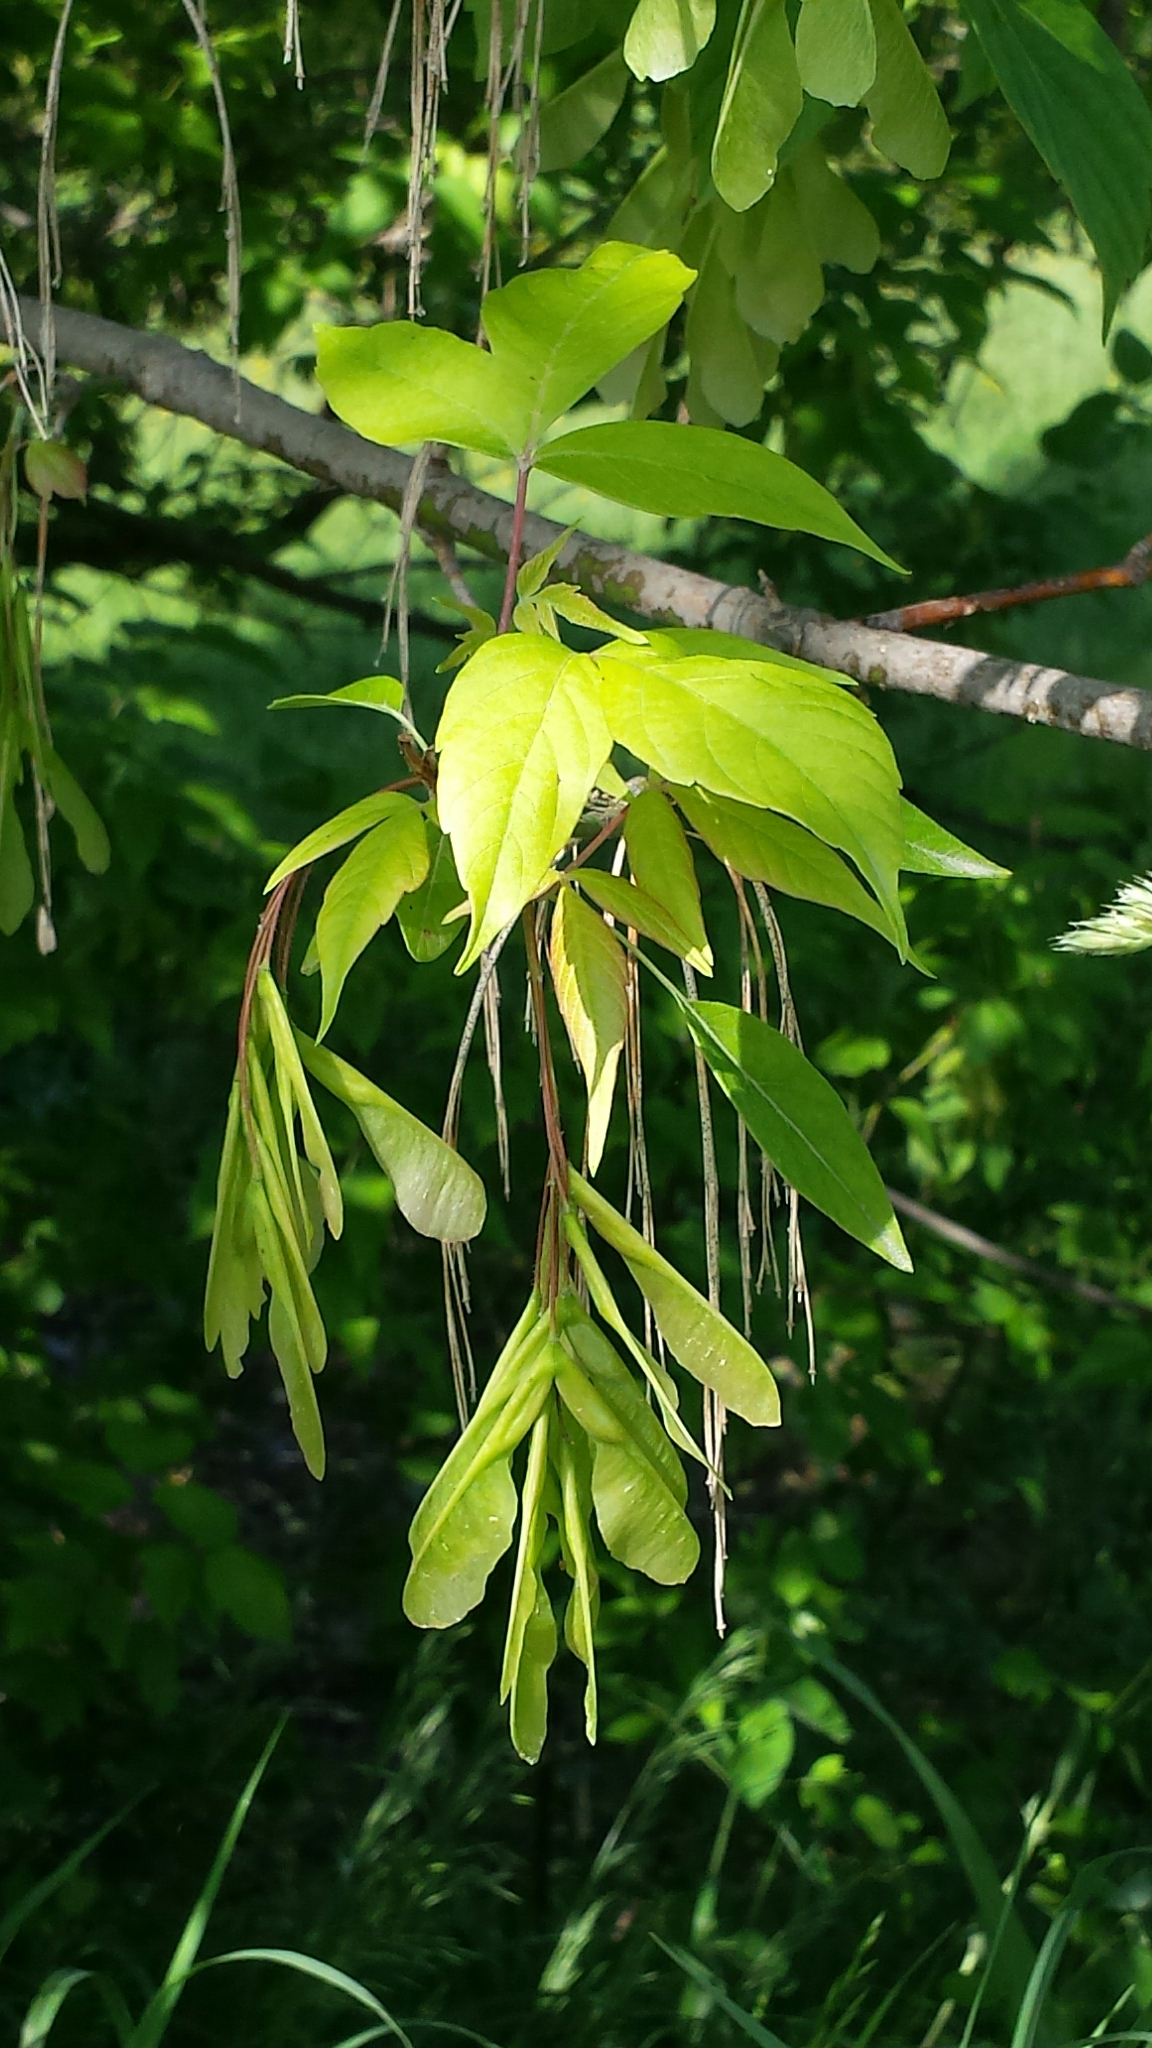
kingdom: Plantae
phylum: Tracheophyta
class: Magnoliopsida
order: Sapindales
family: Sapindaceae
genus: Acer
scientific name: Acer negundo
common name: Ashleaf maple
